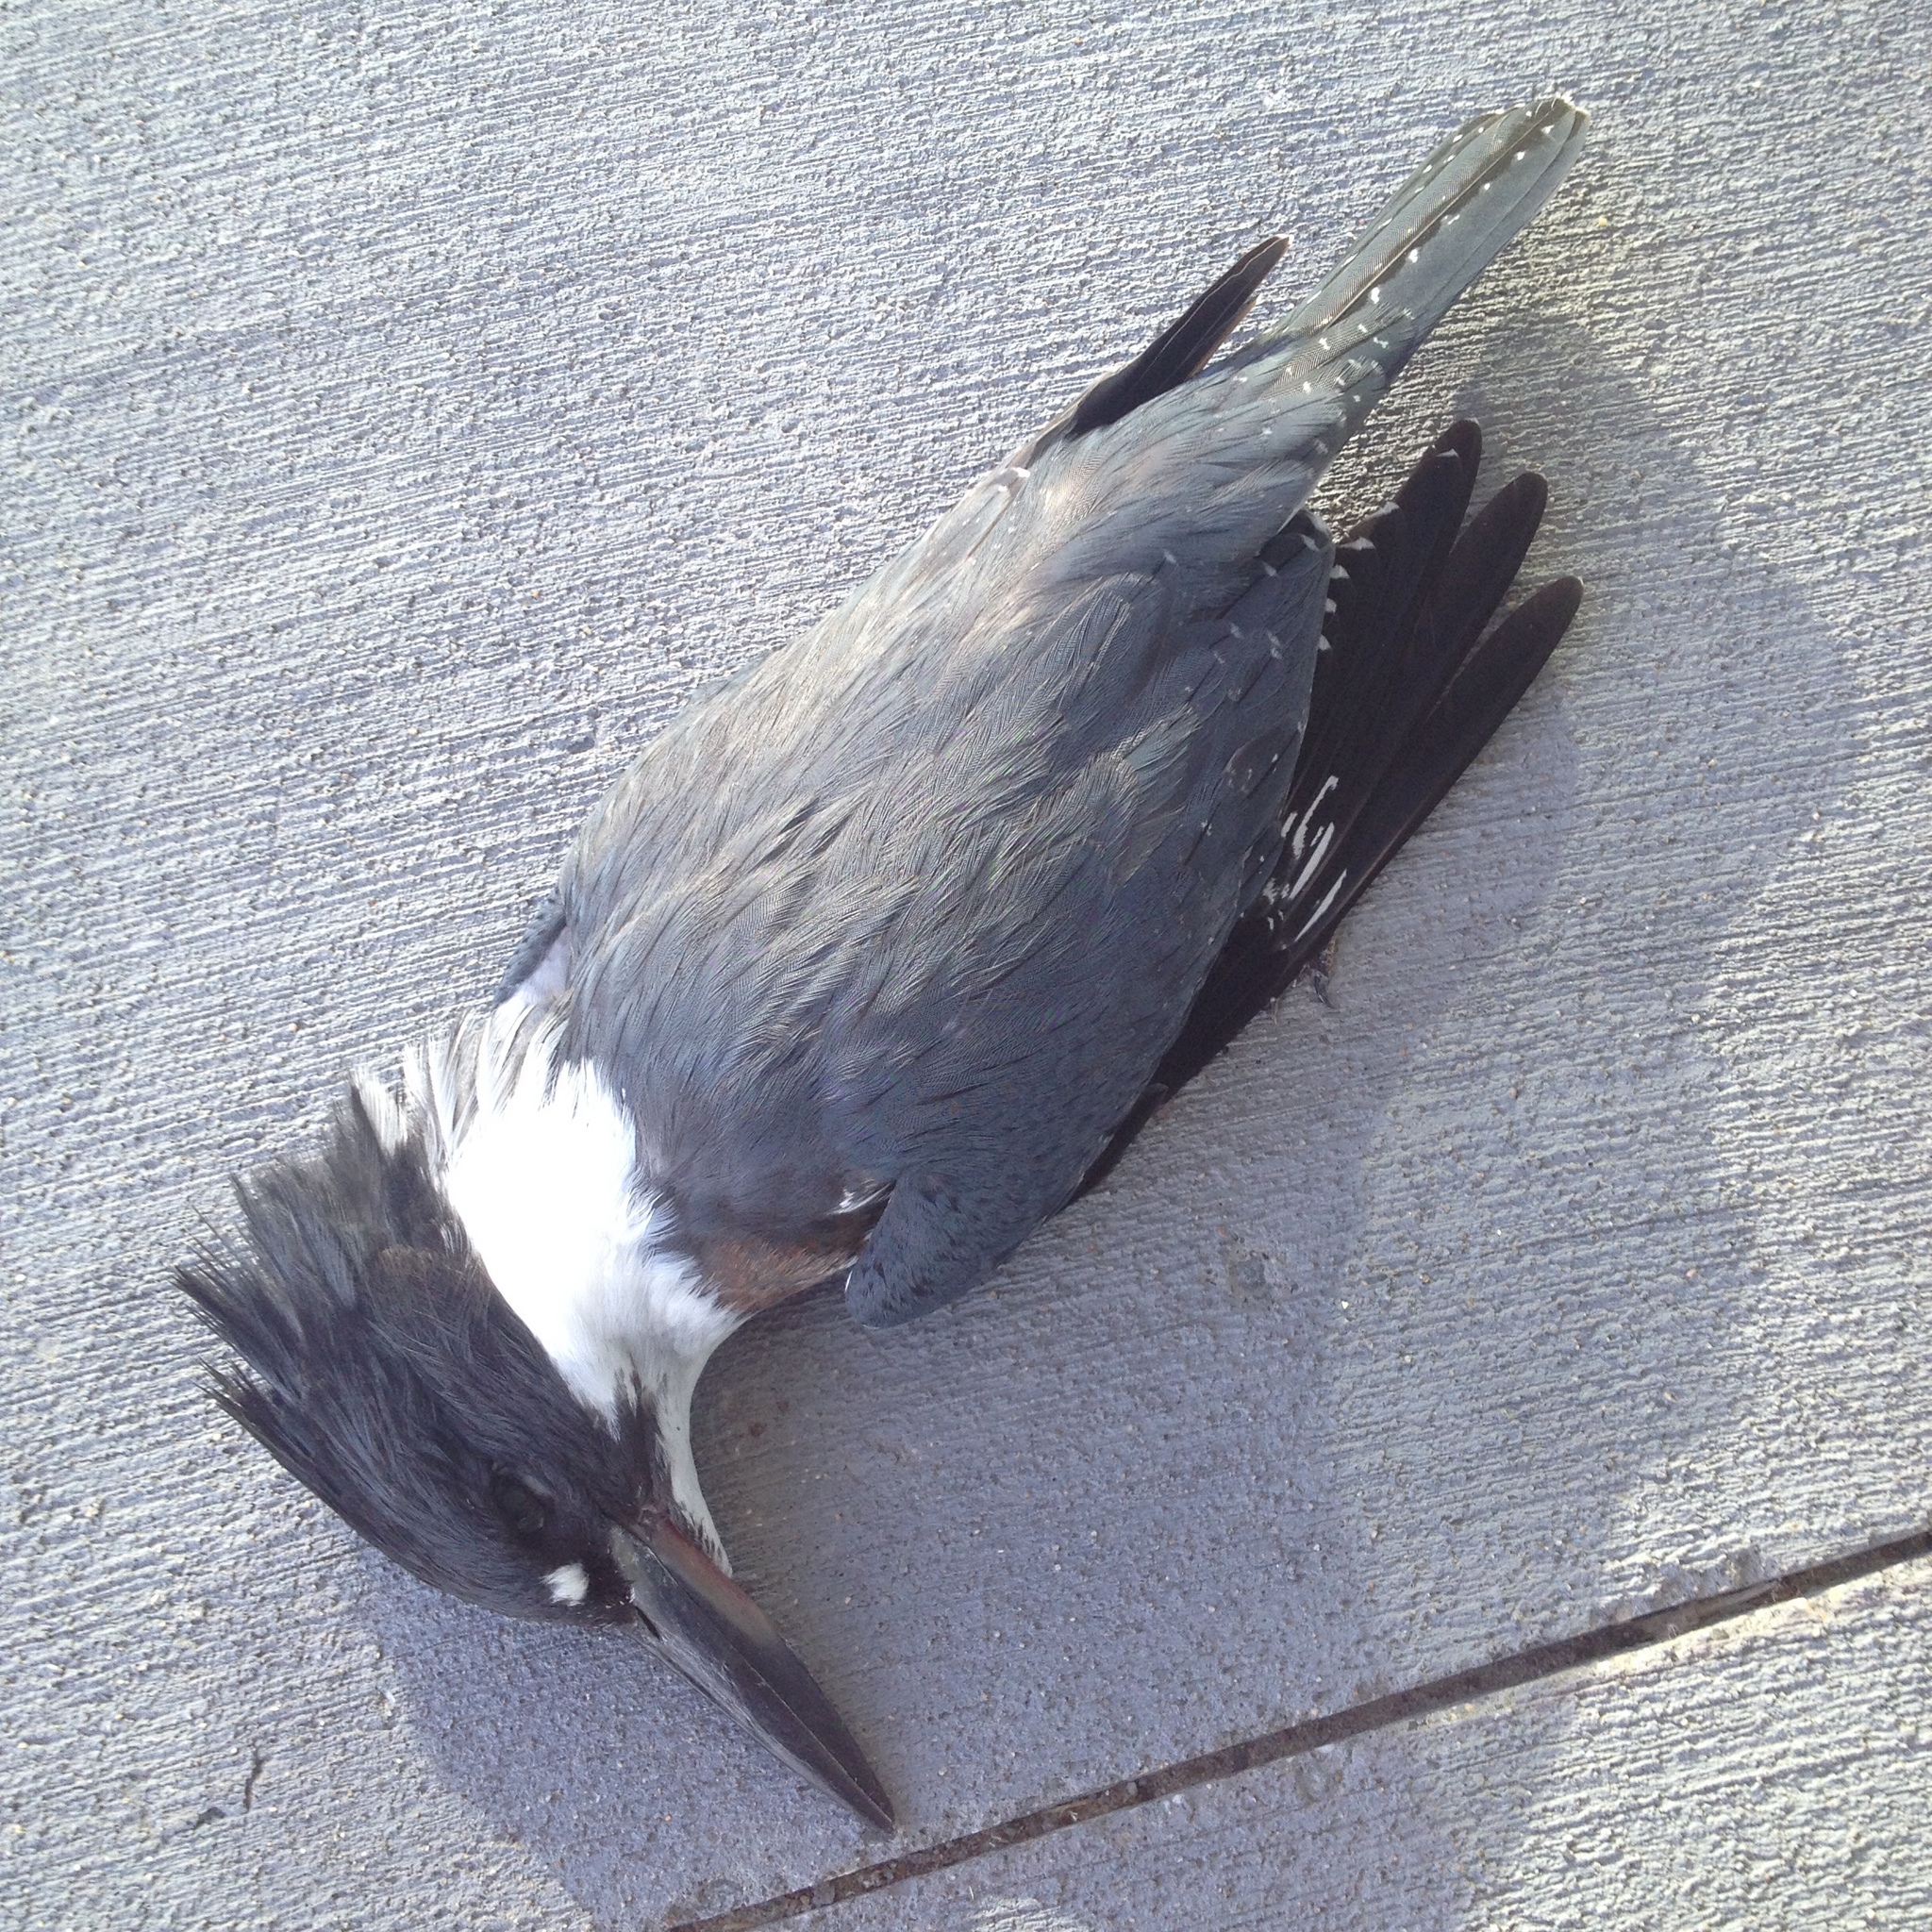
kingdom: Animalia
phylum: Chordata
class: Aves
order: Coraciiformes
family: Alcedinidae
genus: Megaceryle
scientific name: Megaceryle alcyon
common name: Belted kingfisher
